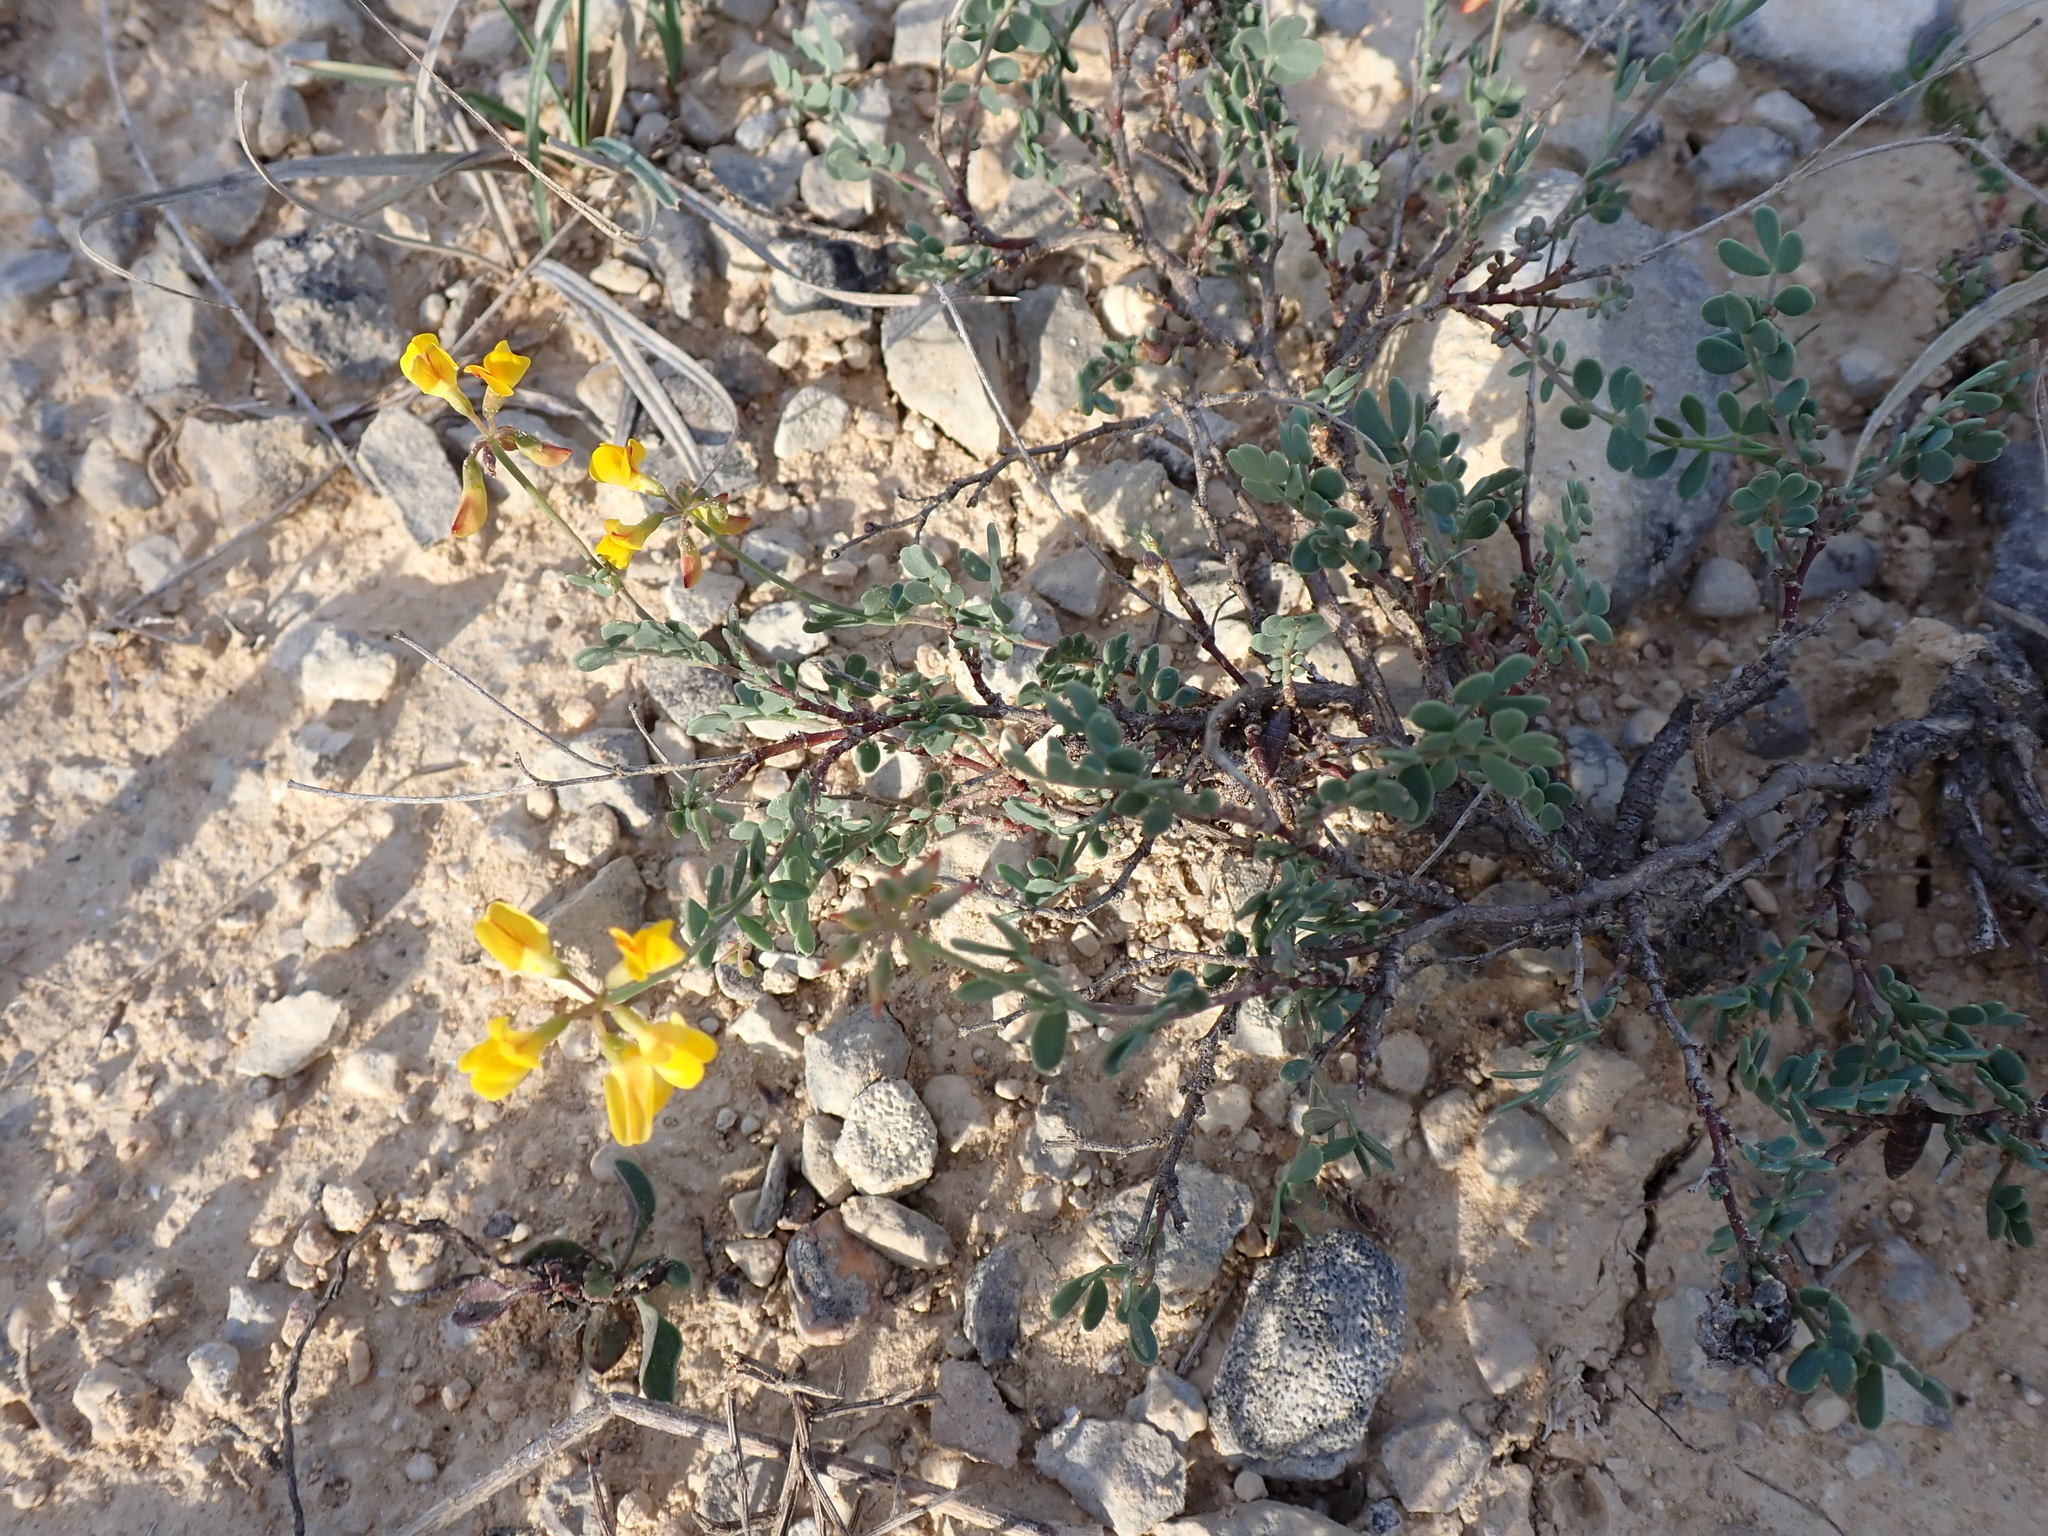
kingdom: Plantae
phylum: Tracheophyta
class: Magnoliopsida
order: Fabales
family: Fabaceae
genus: Coronilla
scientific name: Coronilla minima
